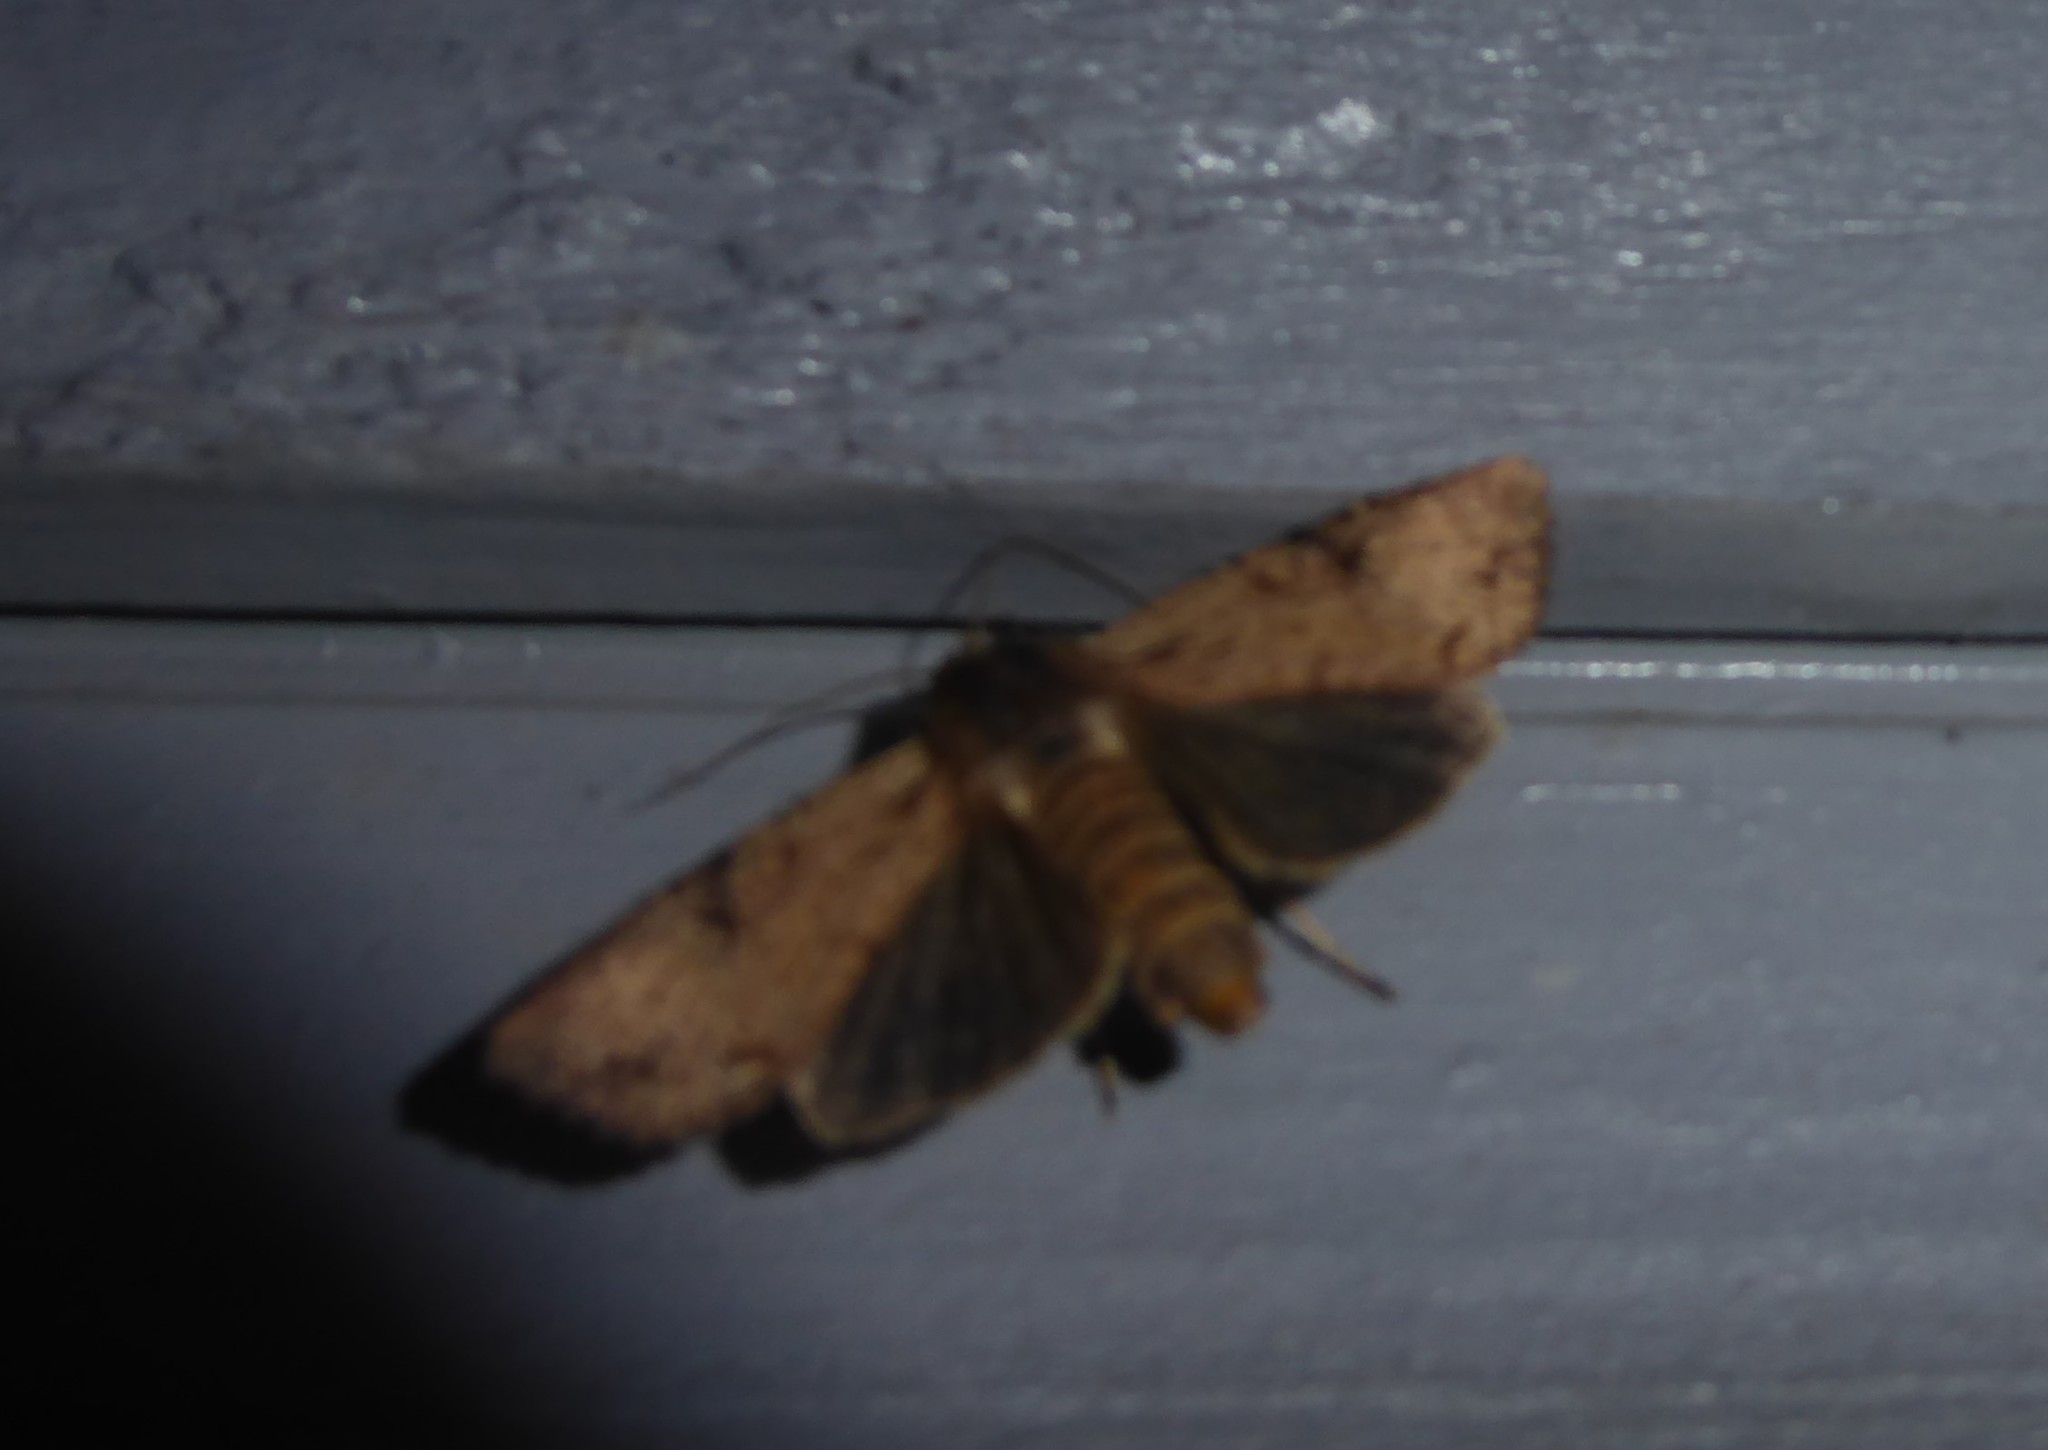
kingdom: Animalia
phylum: Arthropoda
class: Insecta
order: Lepidoptera
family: Noctuidae
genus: Ichneutica
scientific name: Ichneutica omoplaca
